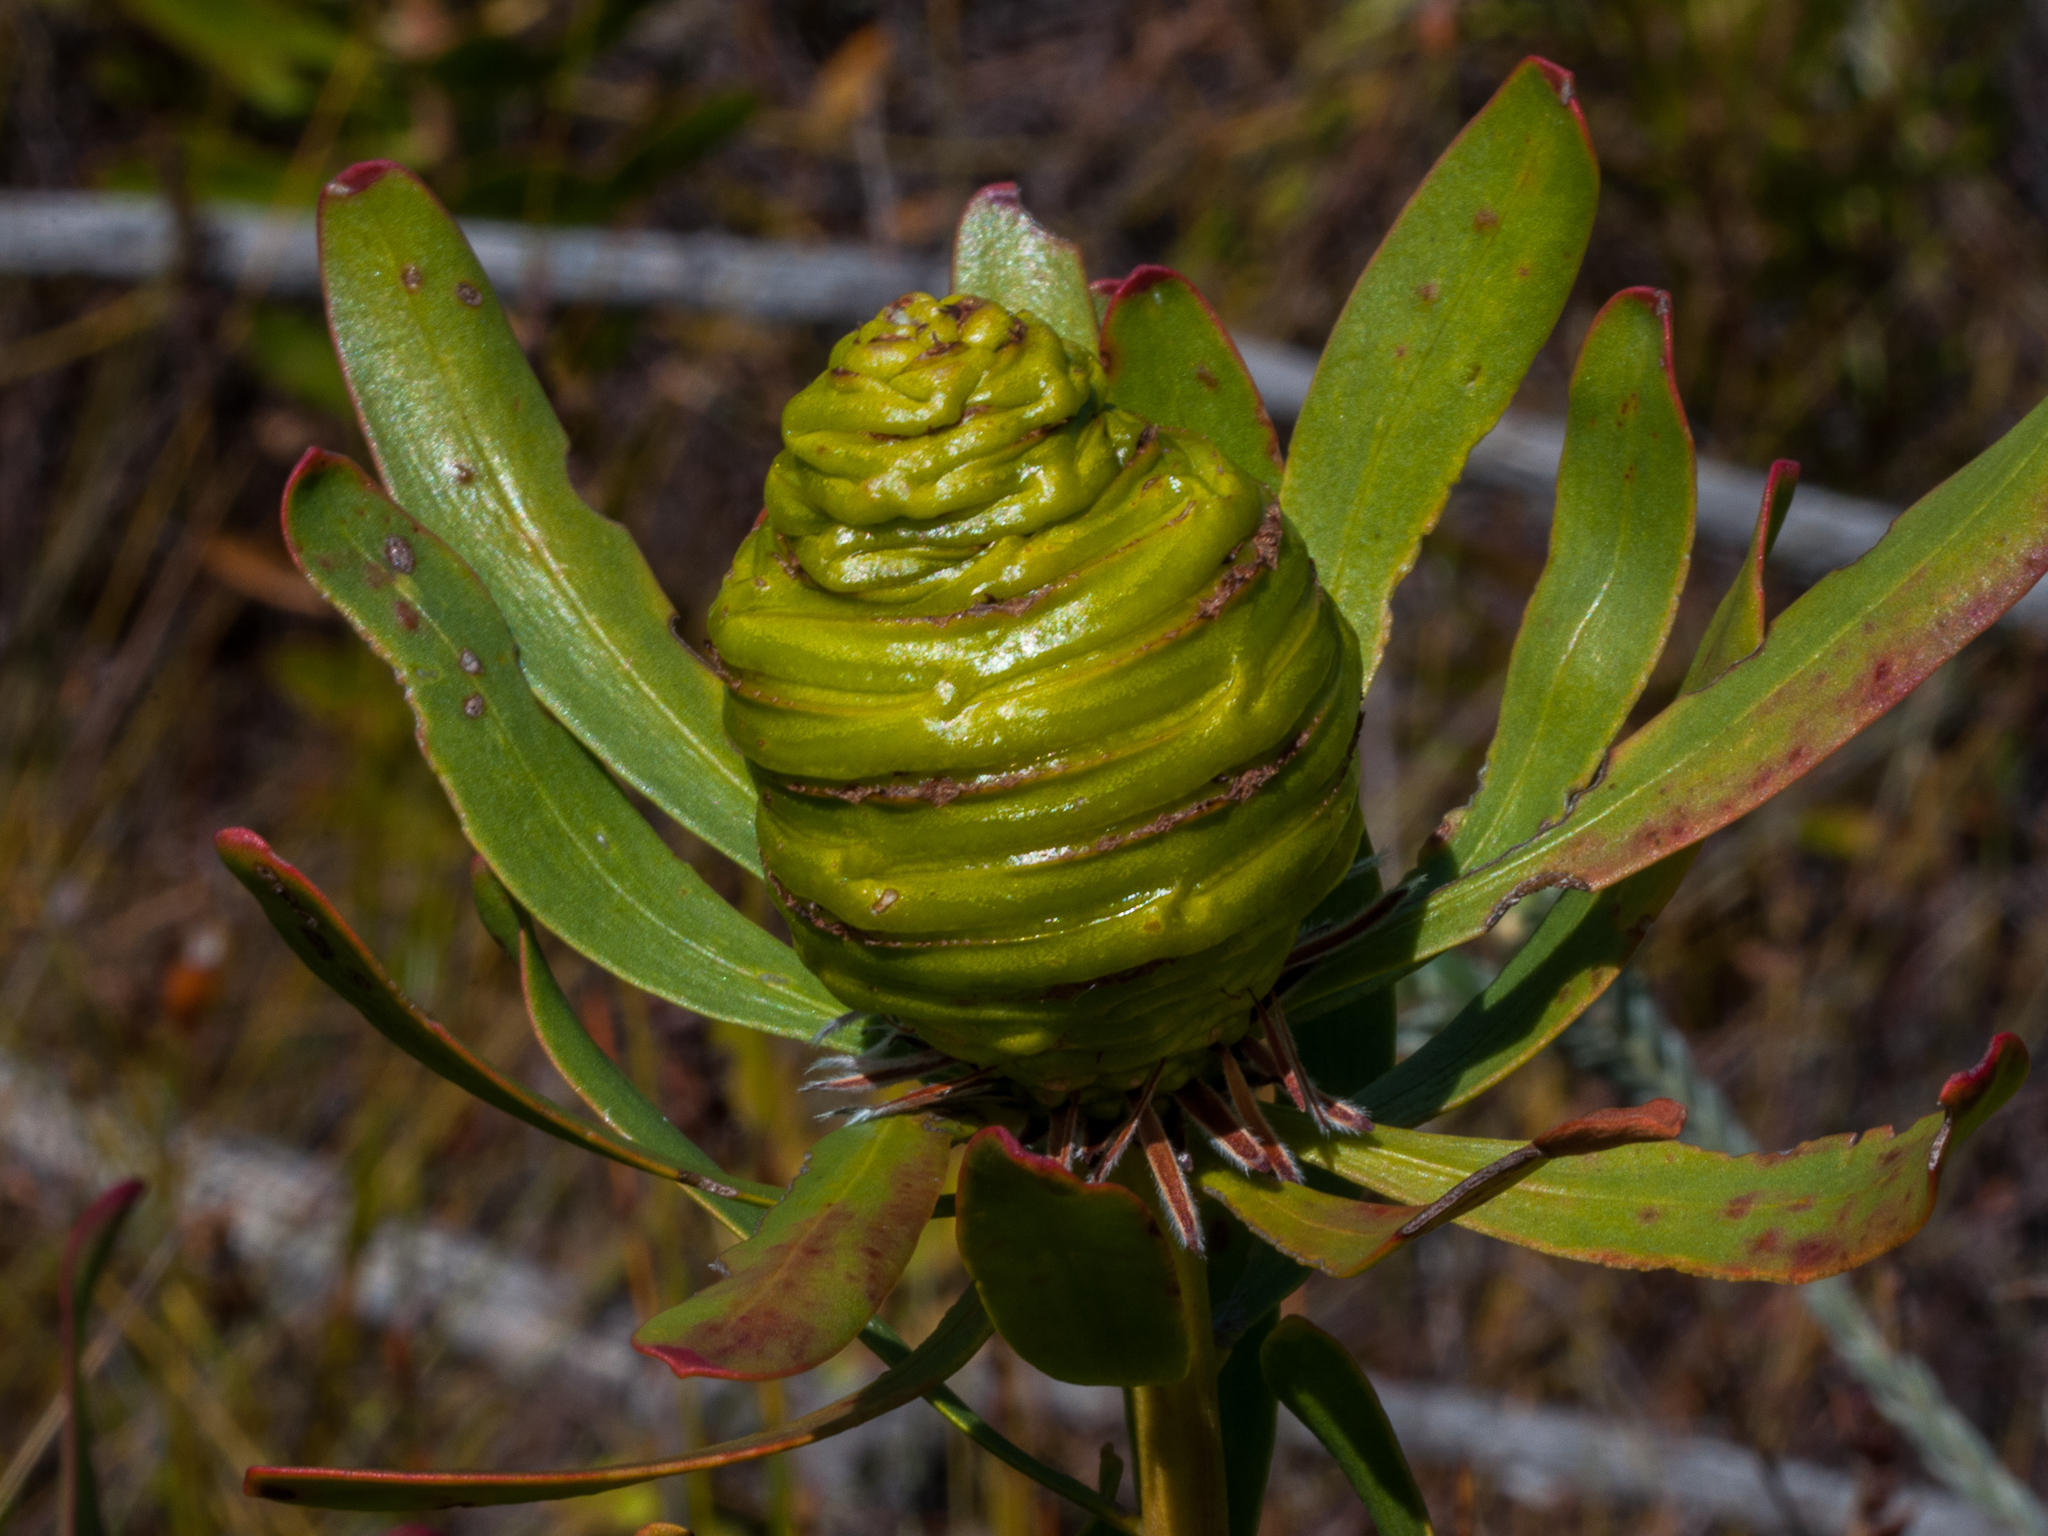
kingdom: Plantae
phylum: Tracheophyta
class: Magnoliopsida
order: Proteales
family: Proteaceae
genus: Leucadendron
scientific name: Leucadendron platyspermum
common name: Plate-seed conebush
